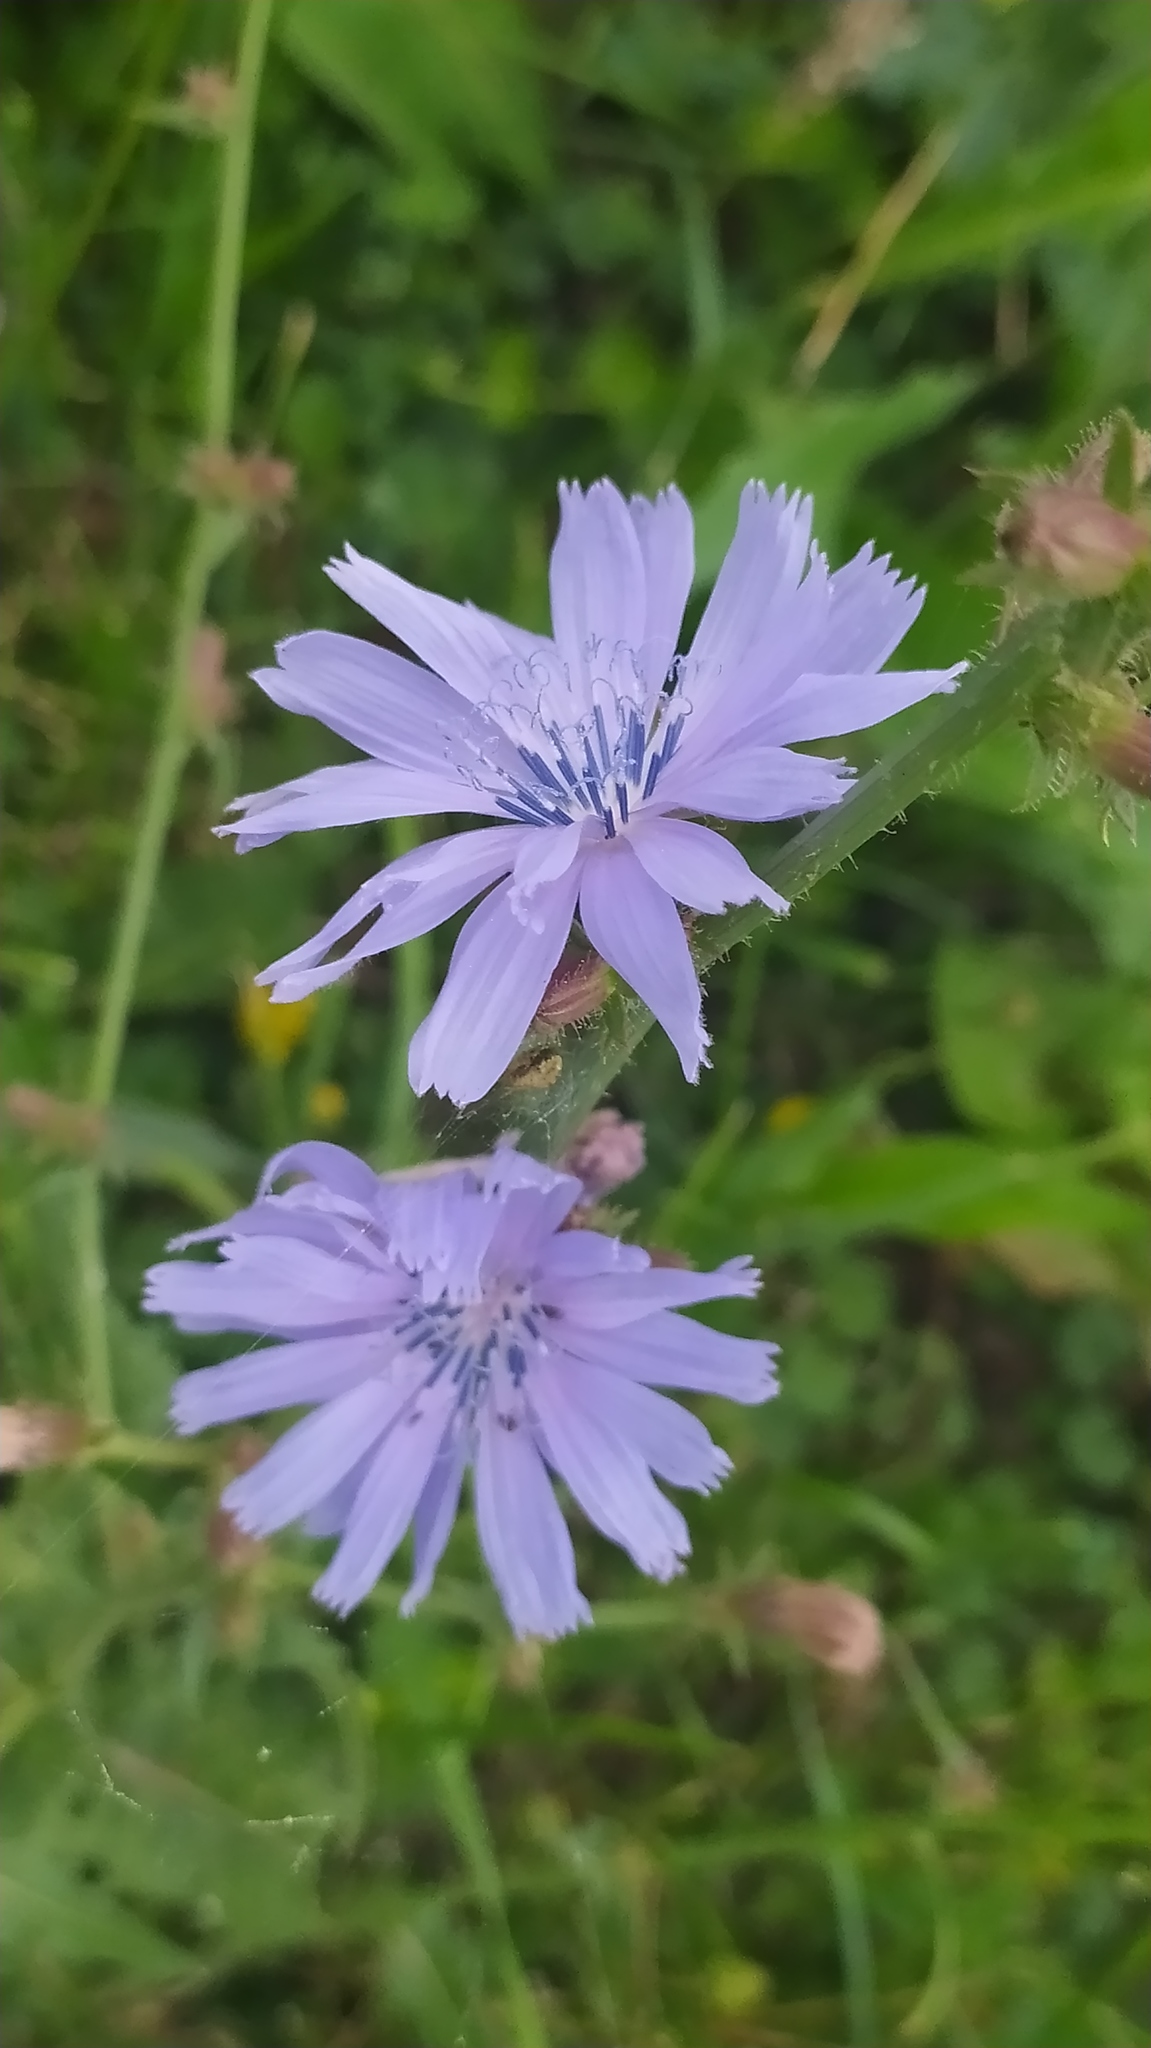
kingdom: Plantae
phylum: Tracheophyta
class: Magnoliopsida
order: Asterales
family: Asteraceae
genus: Cichorium
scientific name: Cichorium intybus
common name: Chicory
